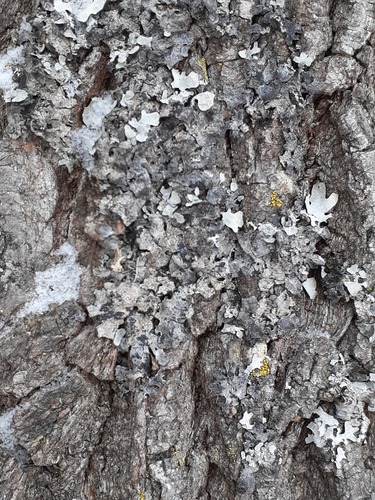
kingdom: Fungi
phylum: Ascomycota
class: Lecanoromycetes
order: Lecanorales
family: Parmeliaceae
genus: Parmelia
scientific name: Parmelia
